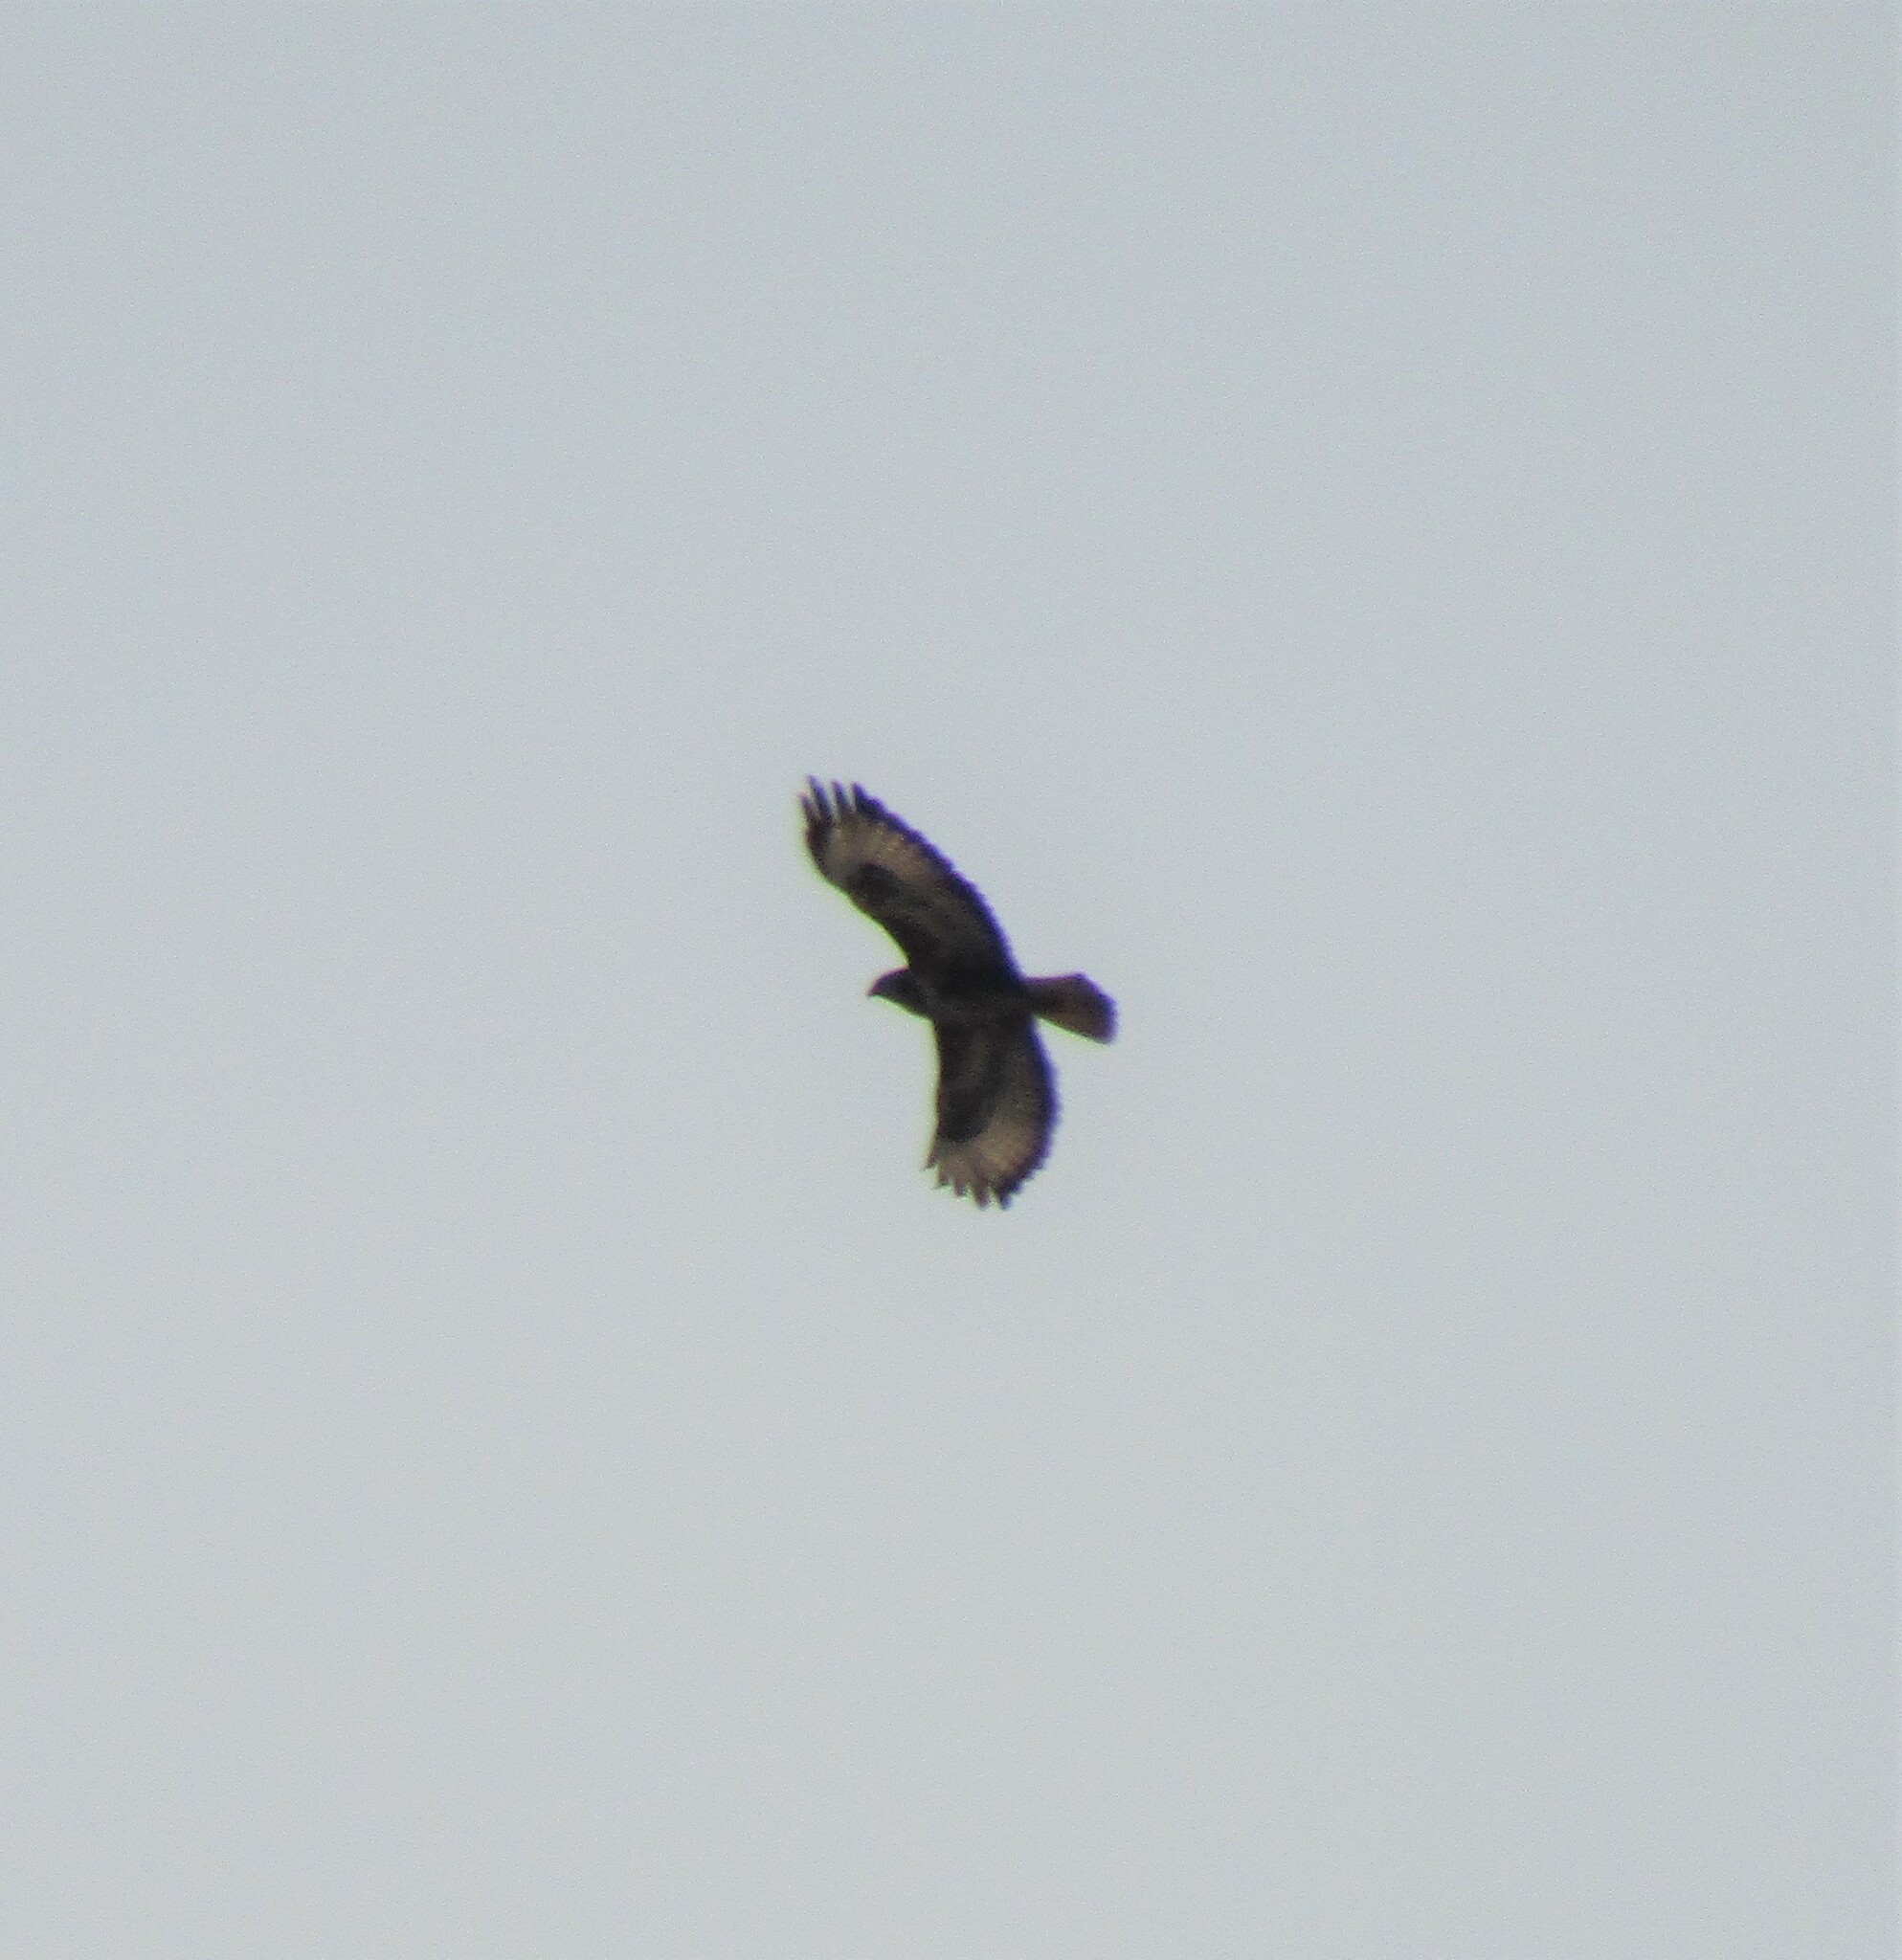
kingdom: Animalia
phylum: Chordata
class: Aves
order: Accipitriformes
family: Accipitridae
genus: Buteo
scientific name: Buteo buteo
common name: Common buzzard
